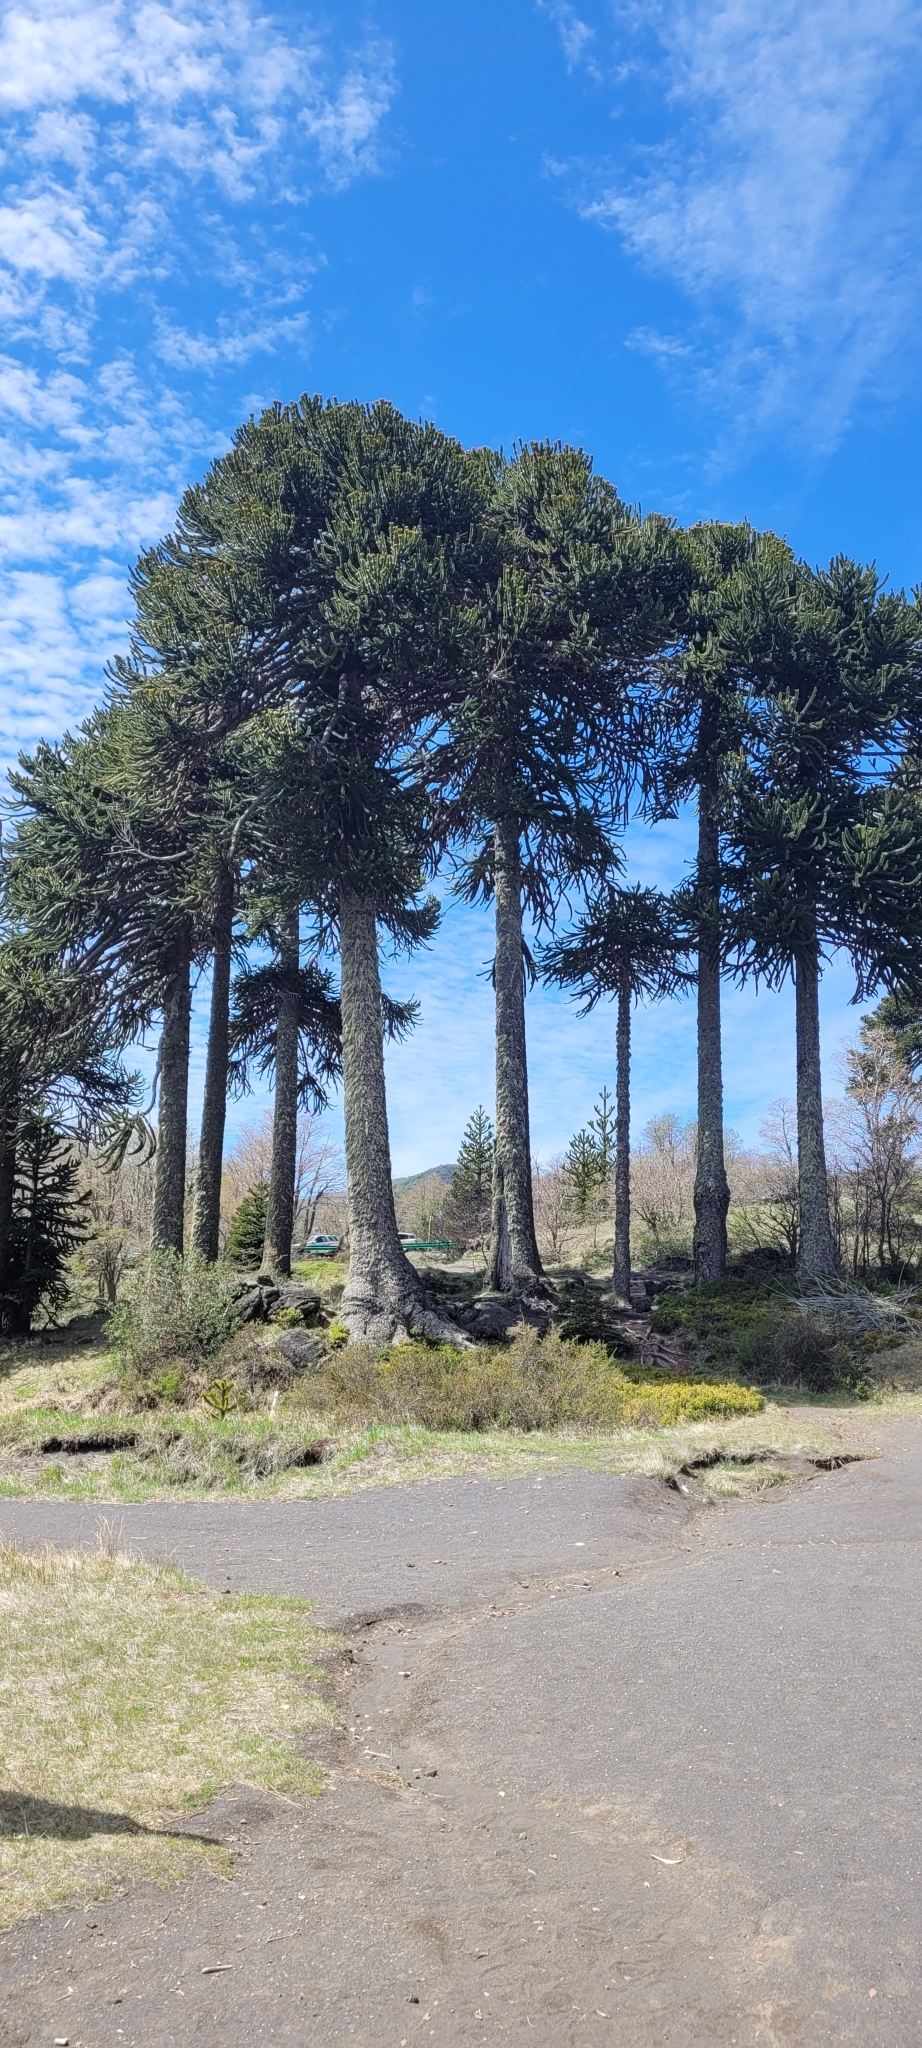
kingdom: Plantae
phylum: Tracheophyta
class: Pinopsida
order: Pinales
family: Araucariaceae
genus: Araucaria
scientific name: Araucaria araucana
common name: Monkey-puzzle
